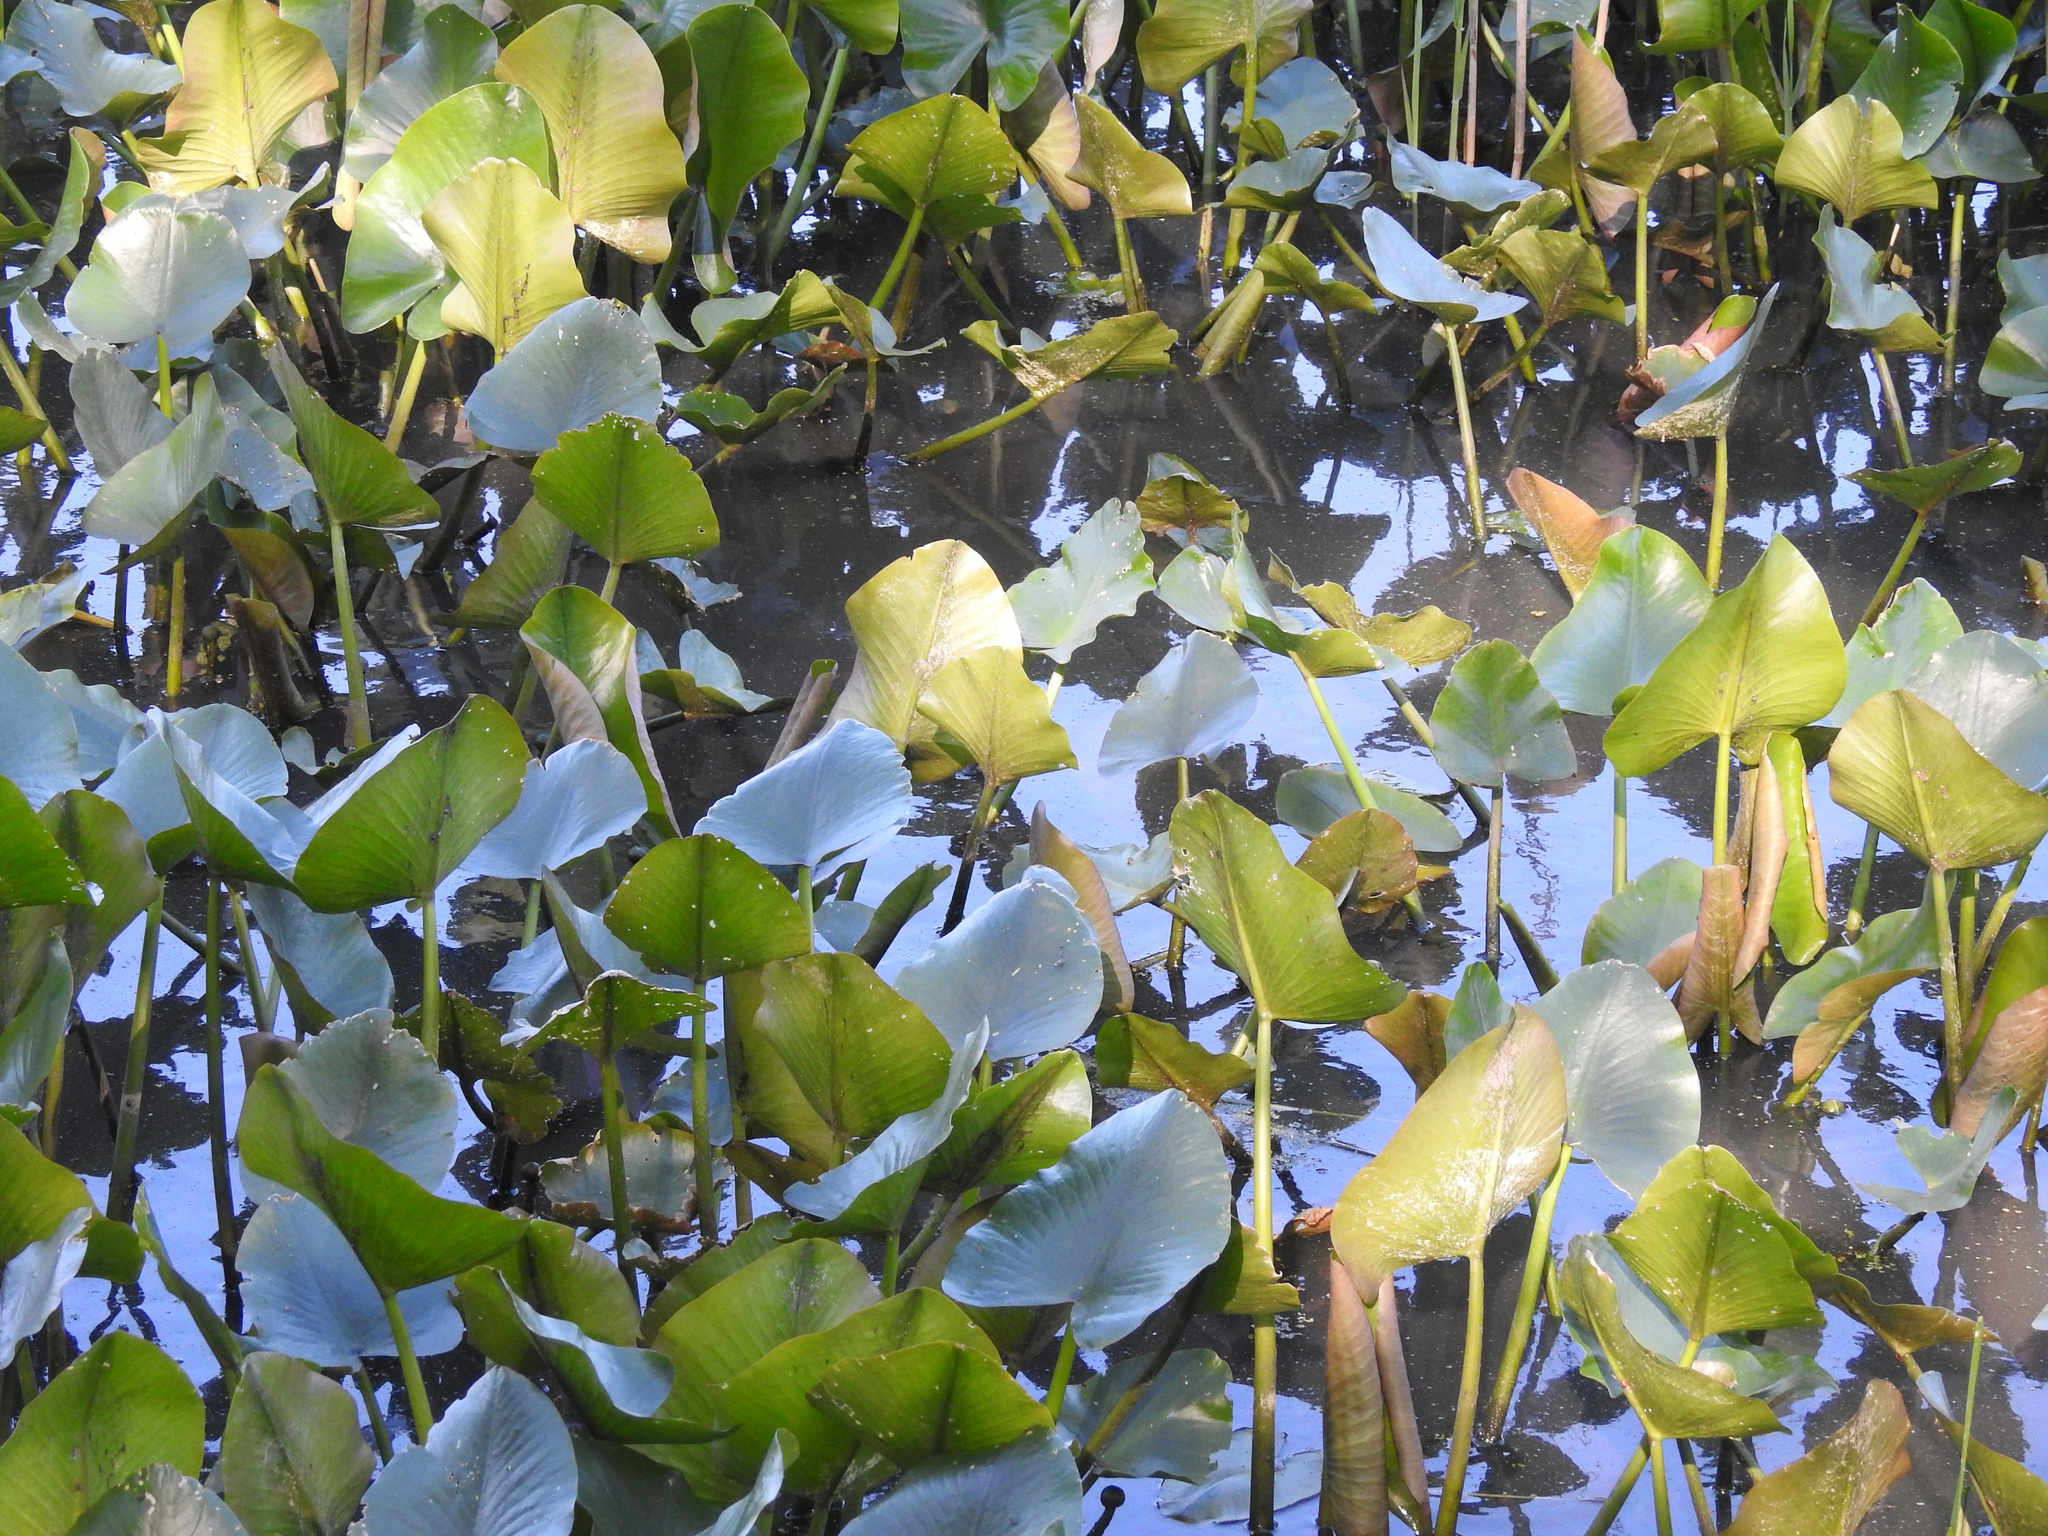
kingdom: Plantae
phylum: Tracheophyta
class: Magnoliopsida
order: Nymphaeales
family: Nymphaeaceae
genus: Nuphar
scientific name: Nuphar advena
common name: Spatter-dock
